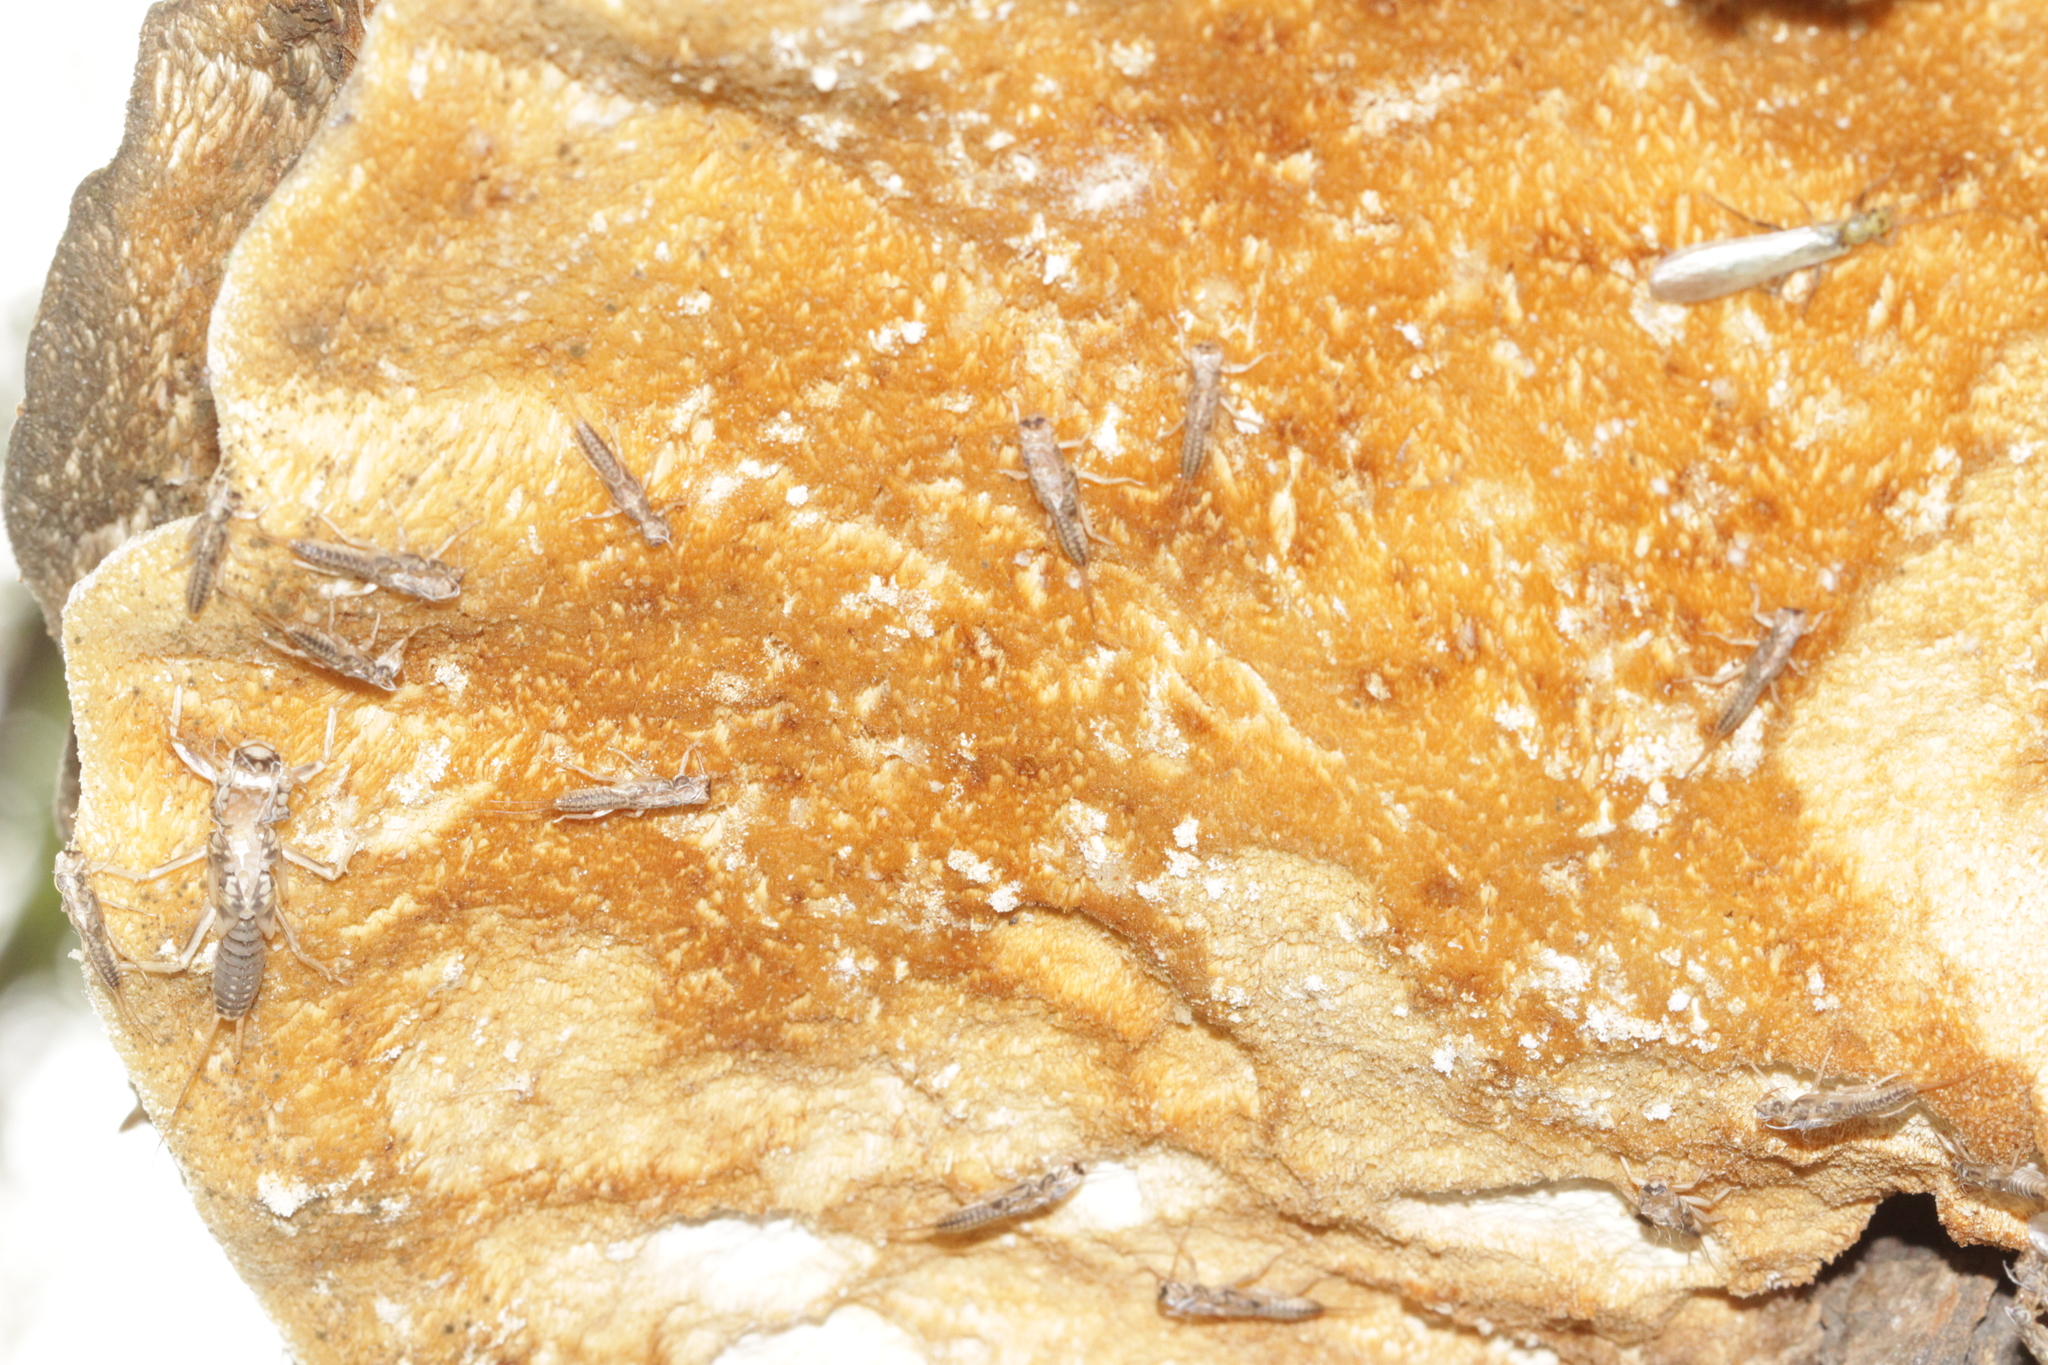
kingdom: Fungi
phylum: Basidiomycota
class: Agaricomycetes
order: Polyporales
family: Laetiporaceae
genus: Laetiporus
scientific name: Laetiporus sulphureus
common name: Chicken of the woods
